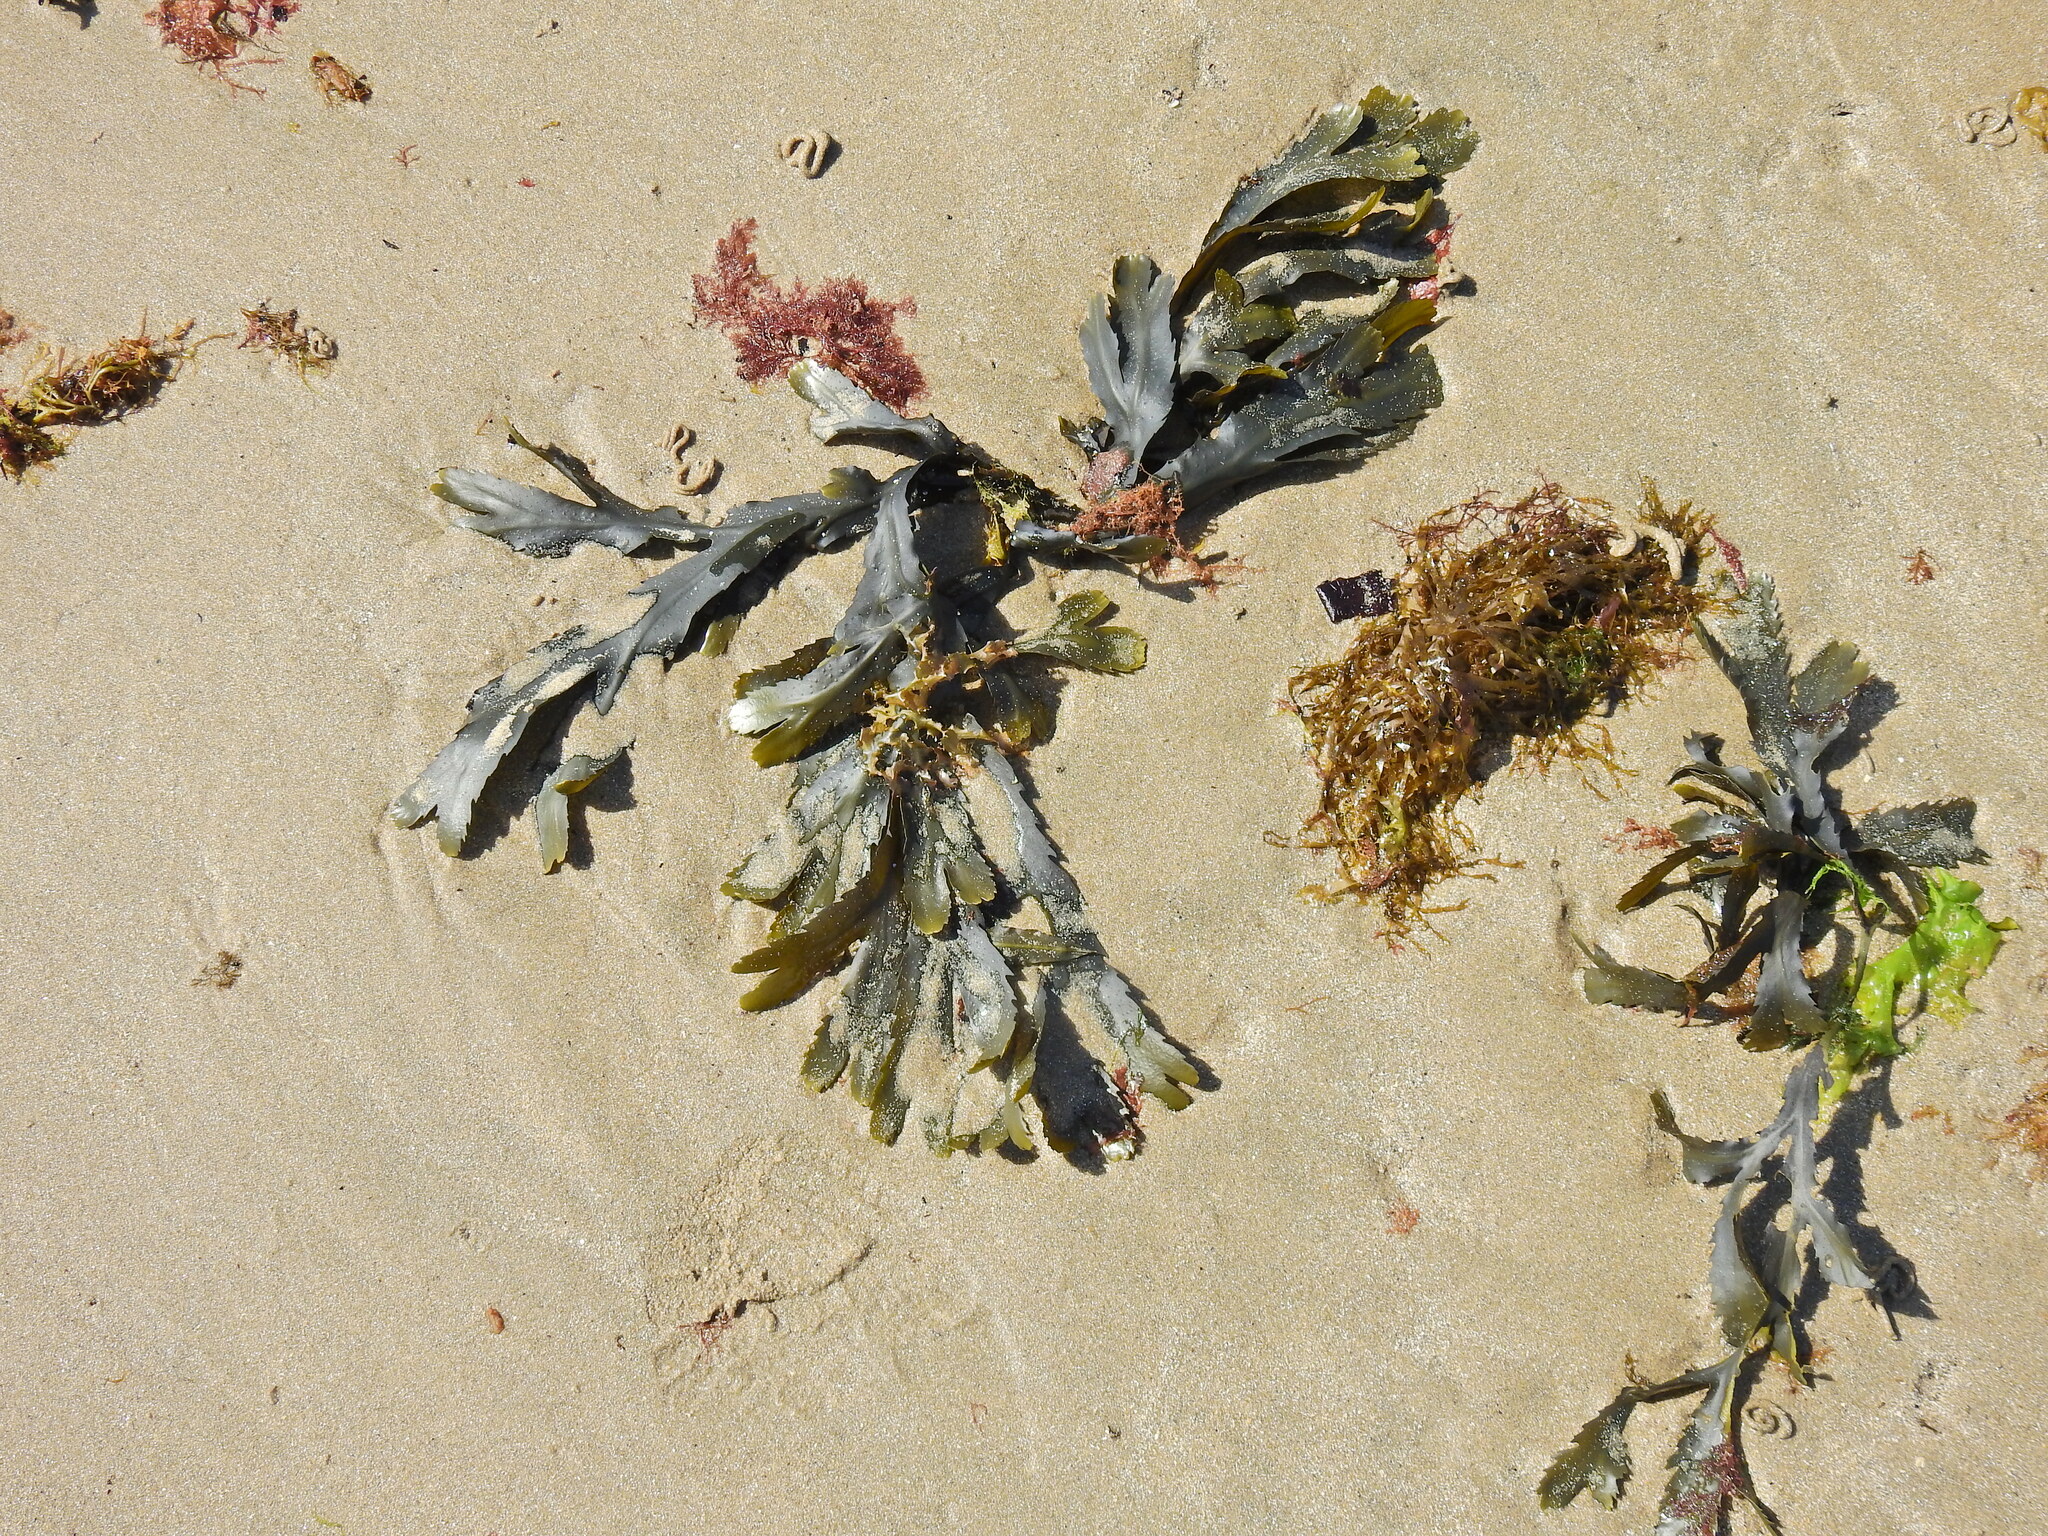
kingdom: Chromista
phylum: Ochrophyta
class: Phaeophyceae
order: Fucales
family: Fucaceae
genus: Fucus
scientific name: Fucus serratus
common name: Toothed wrack
